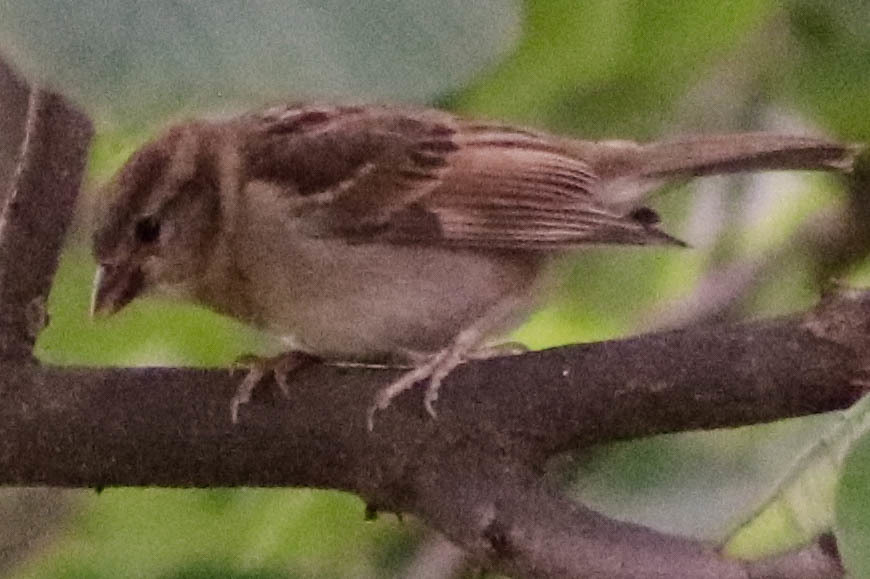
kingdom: Animalia
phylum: Chordata
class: Aves
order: Passeriformes
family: Passeridae
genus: Passer
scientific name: Passer domesticus
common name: House sparrow
